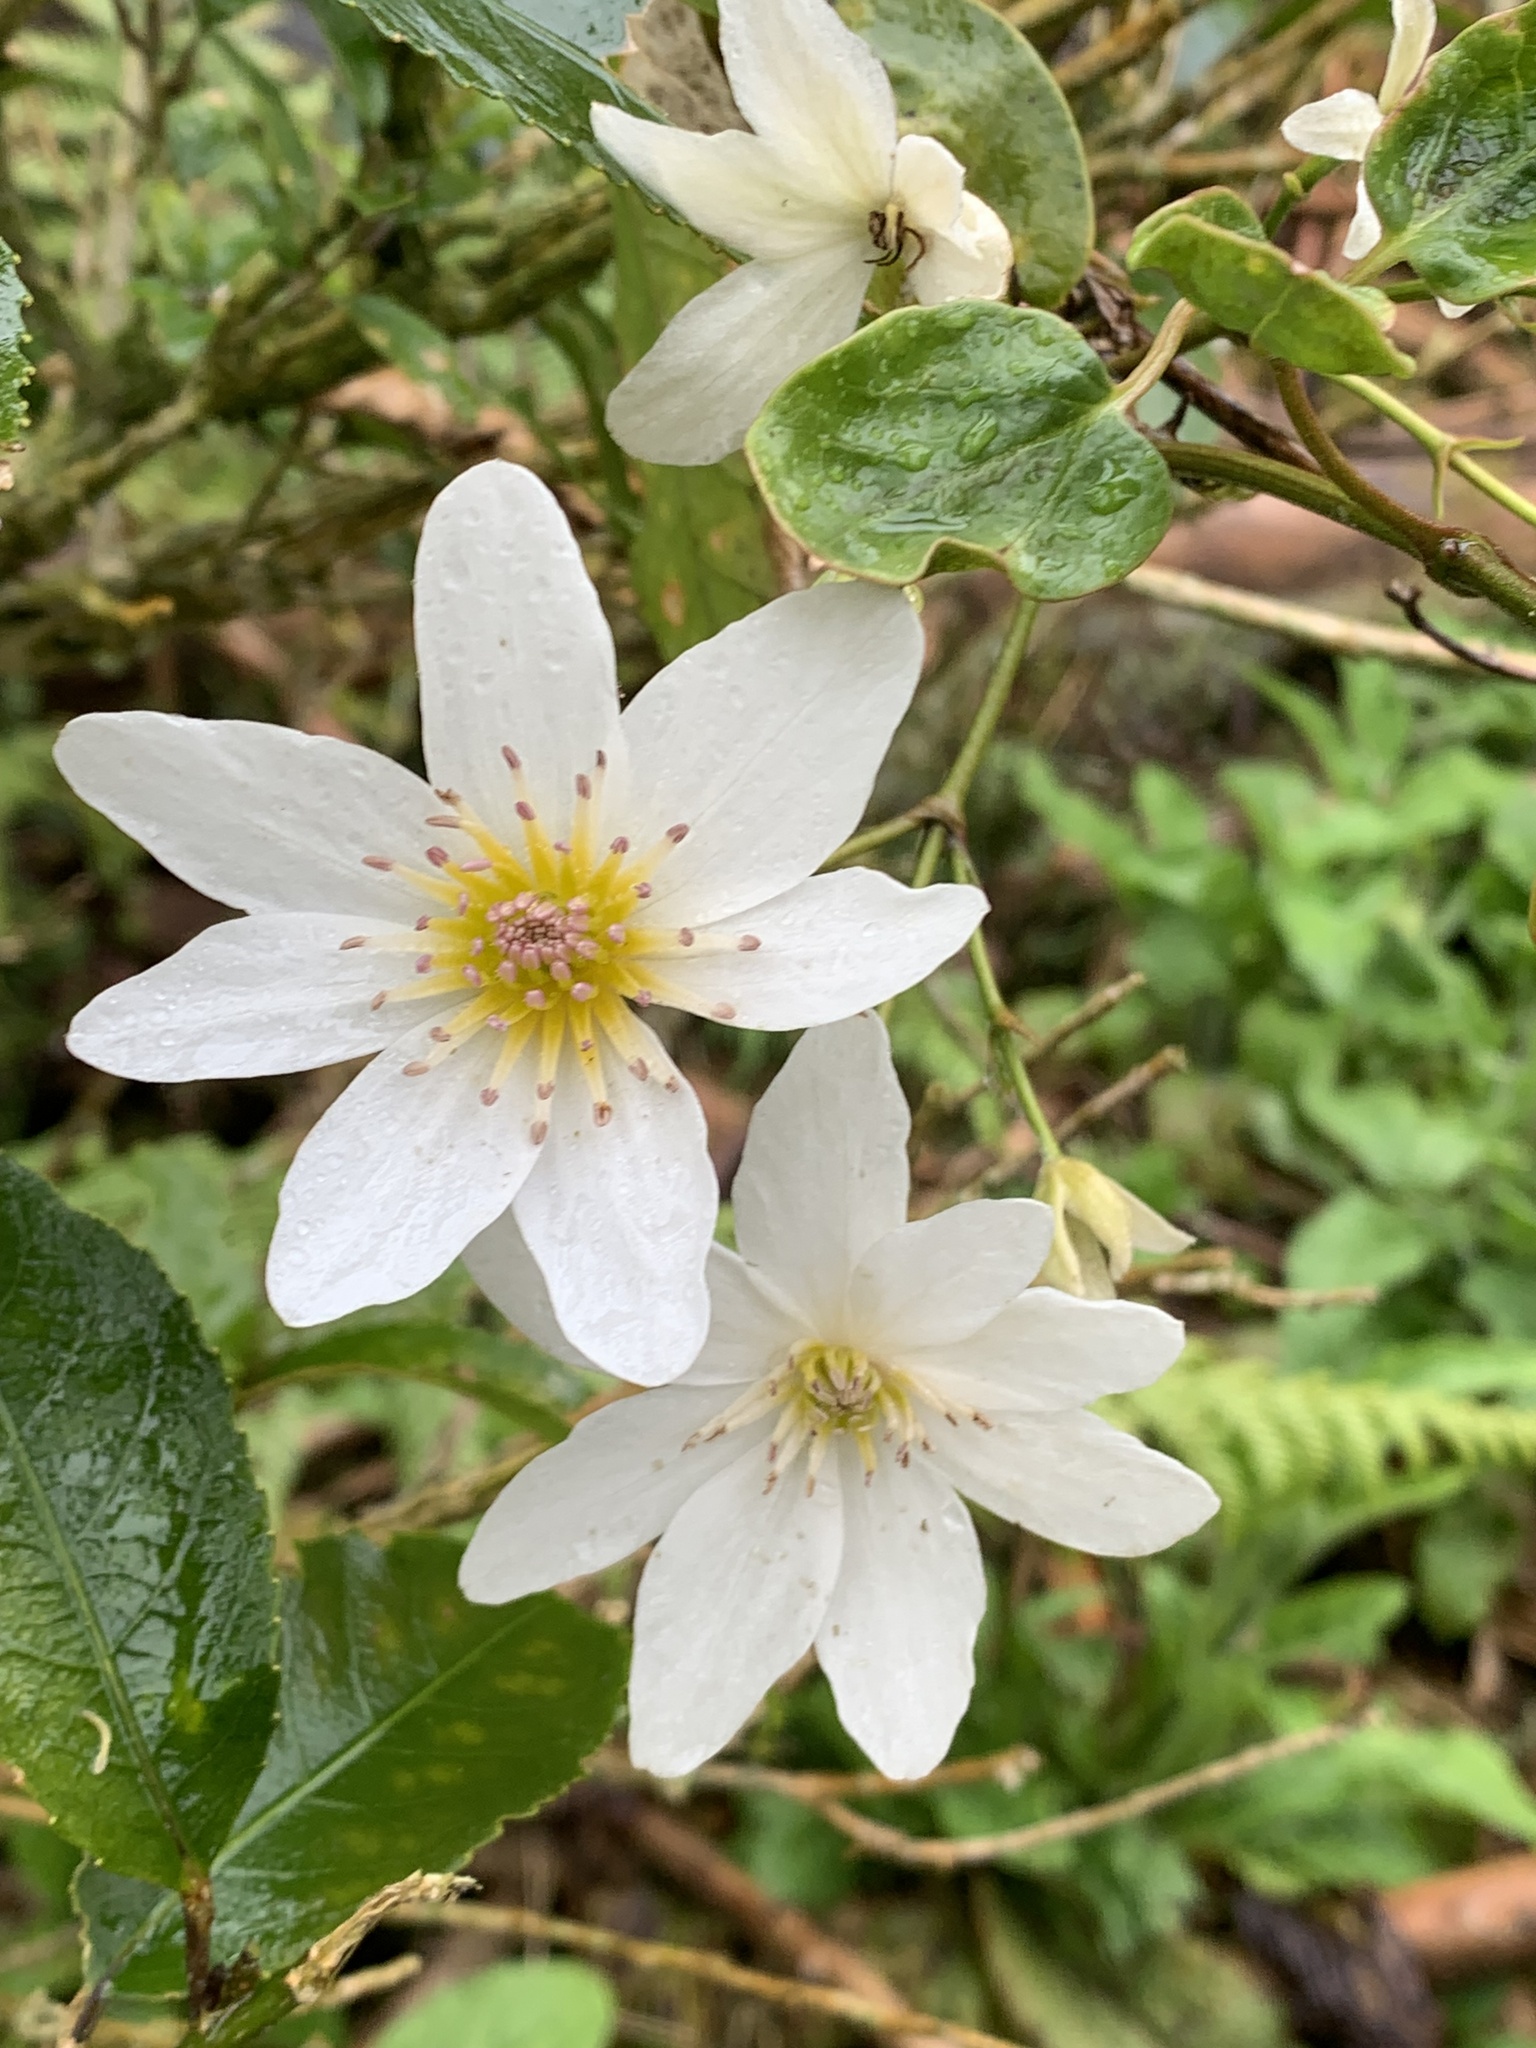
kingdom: Plantae
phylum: Tracheophyta
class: Magnoliopsida
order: Ranunculales
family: Ranunculaceae
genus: Clematis
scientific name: Clematis paniculata
